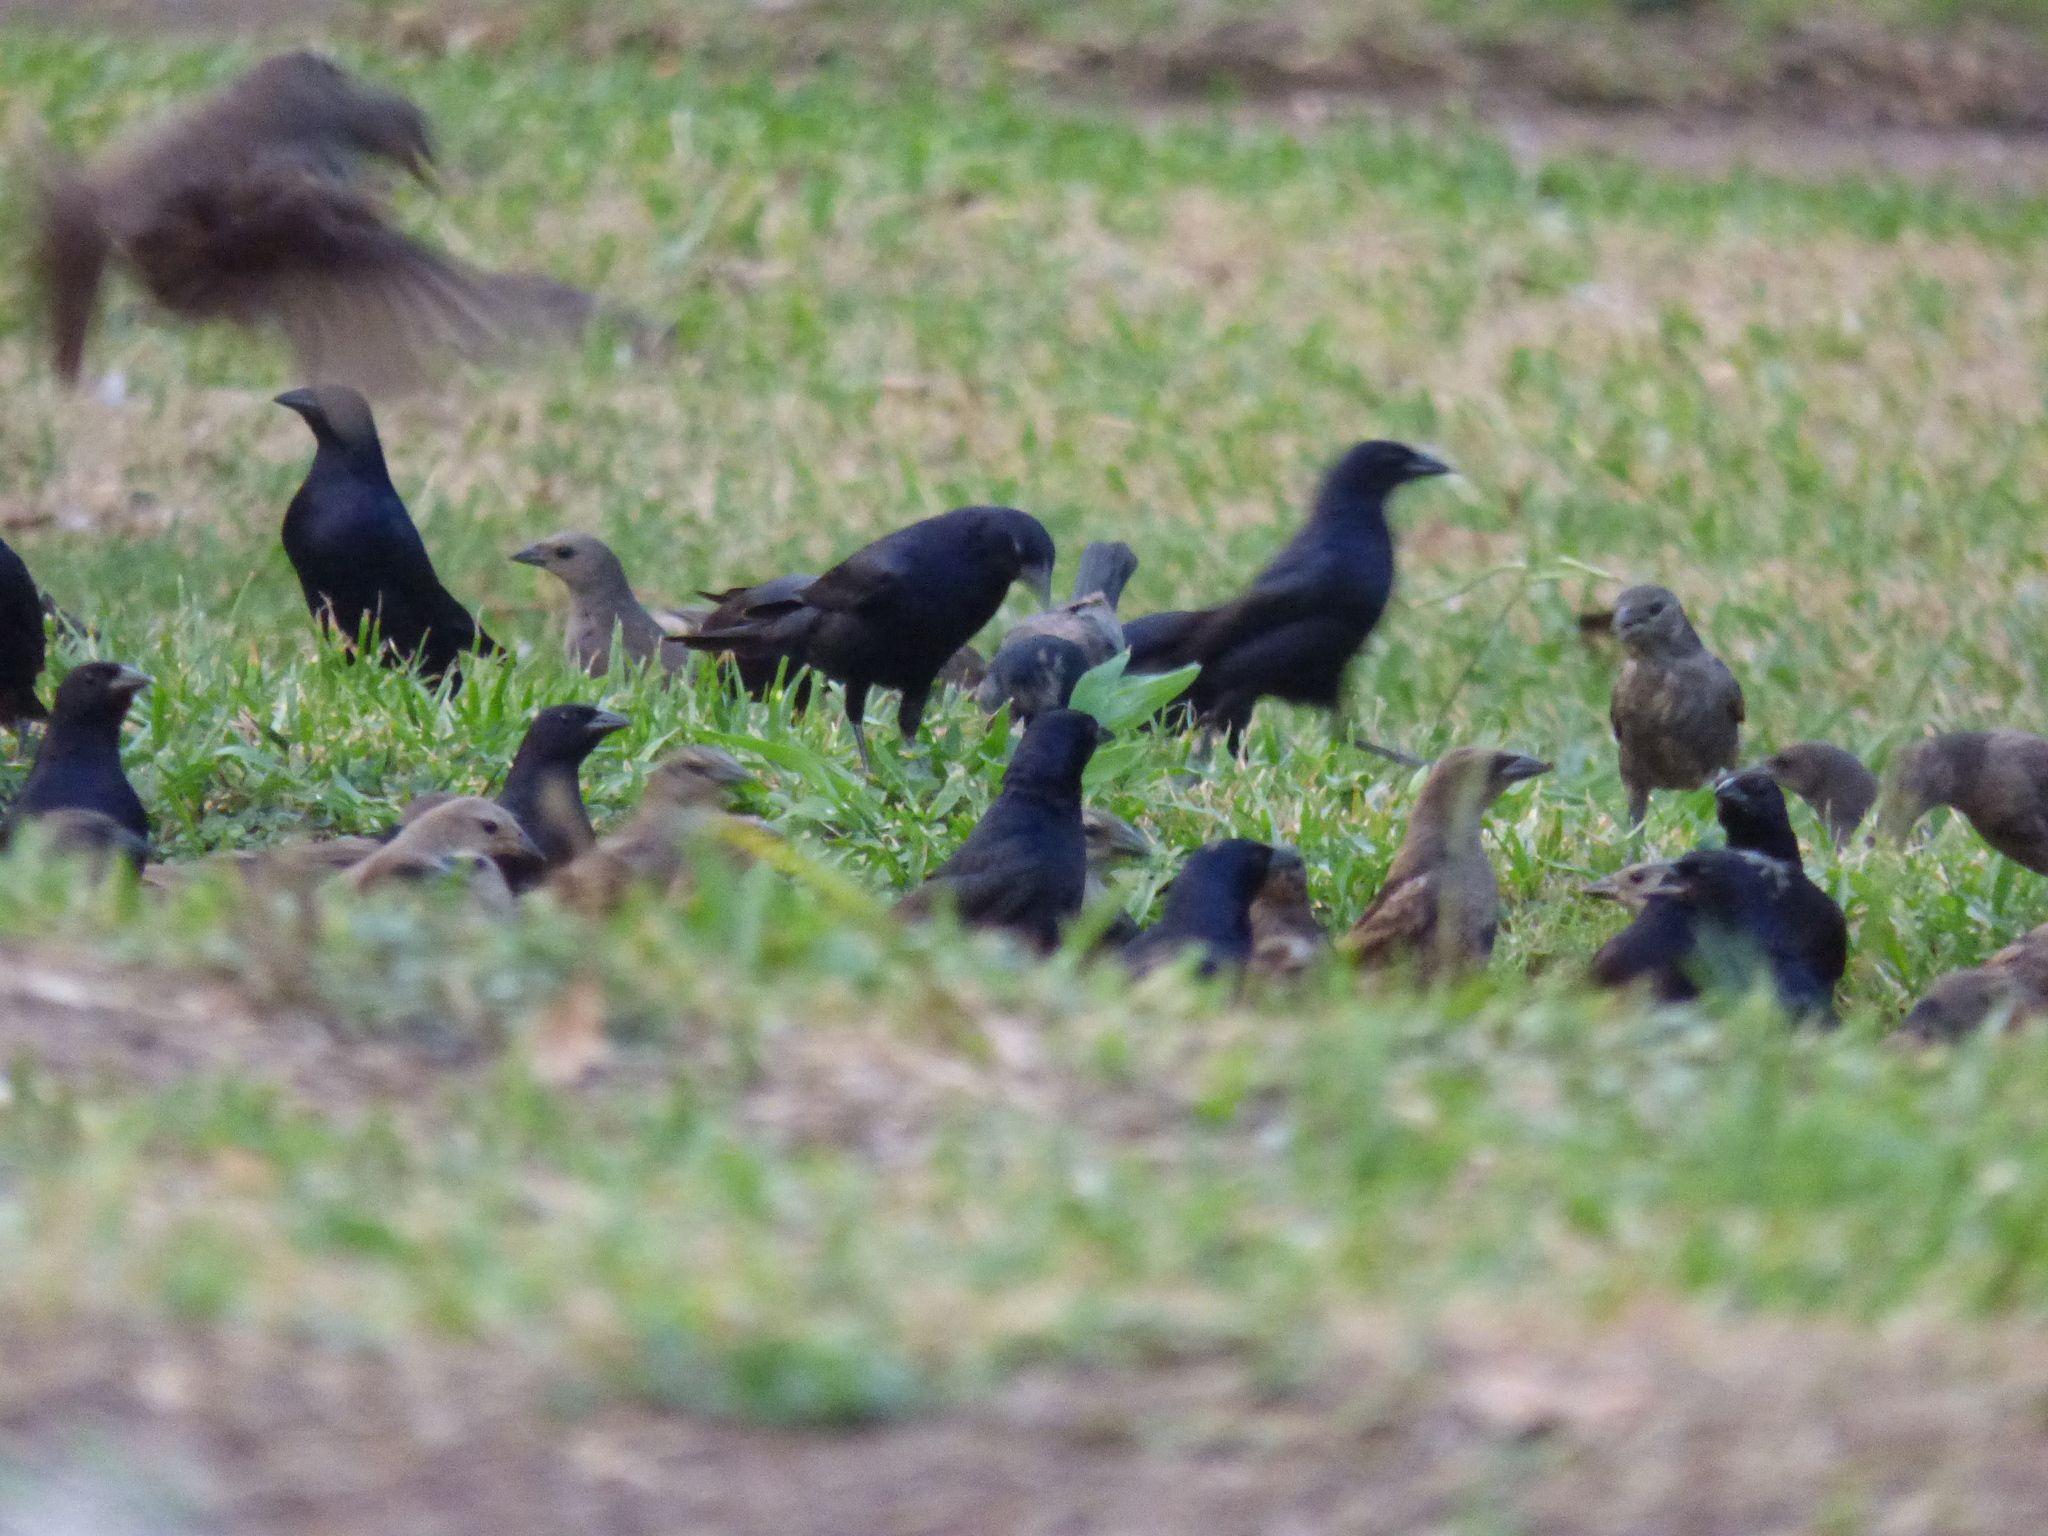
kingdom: Animalia
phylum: Chordata
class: Aves
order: Passeriformes
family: Icteridae
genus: Molothrus
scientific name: Molothrus bonariensis
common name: Shiny cowbird
